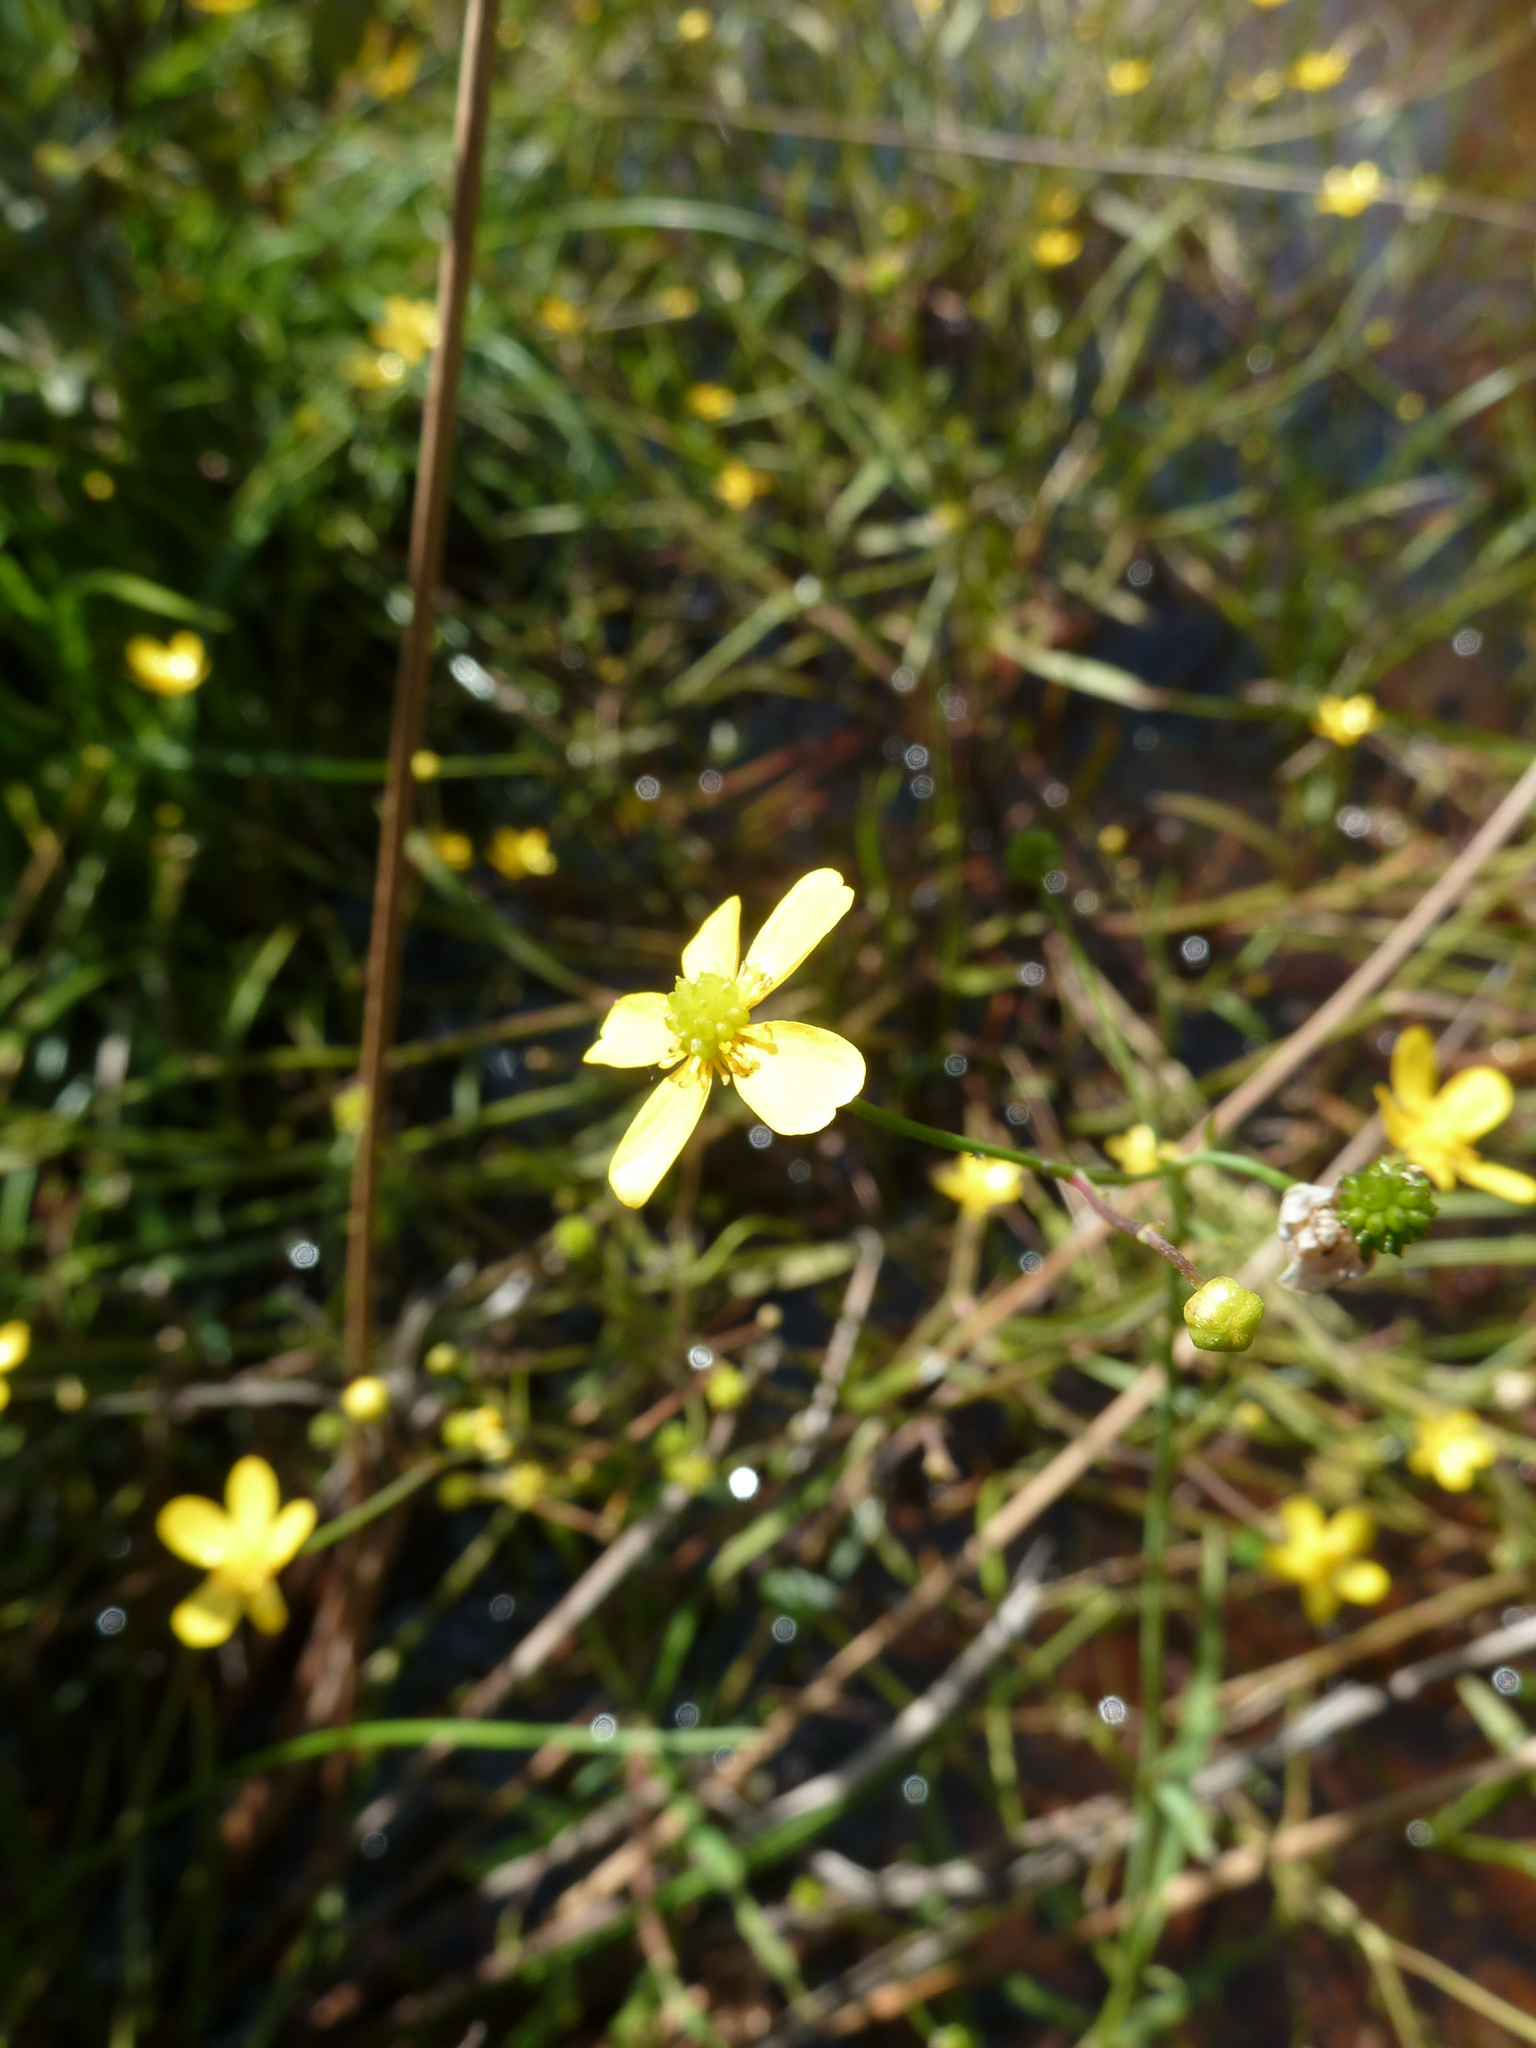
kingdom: Plantae
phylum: Tracheophyta
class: Magnoliopsida
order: Ranunculales
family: Ranunculaceae
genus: Ranunculus
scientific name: Ranunculus flammula
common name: Lesser spearwort
